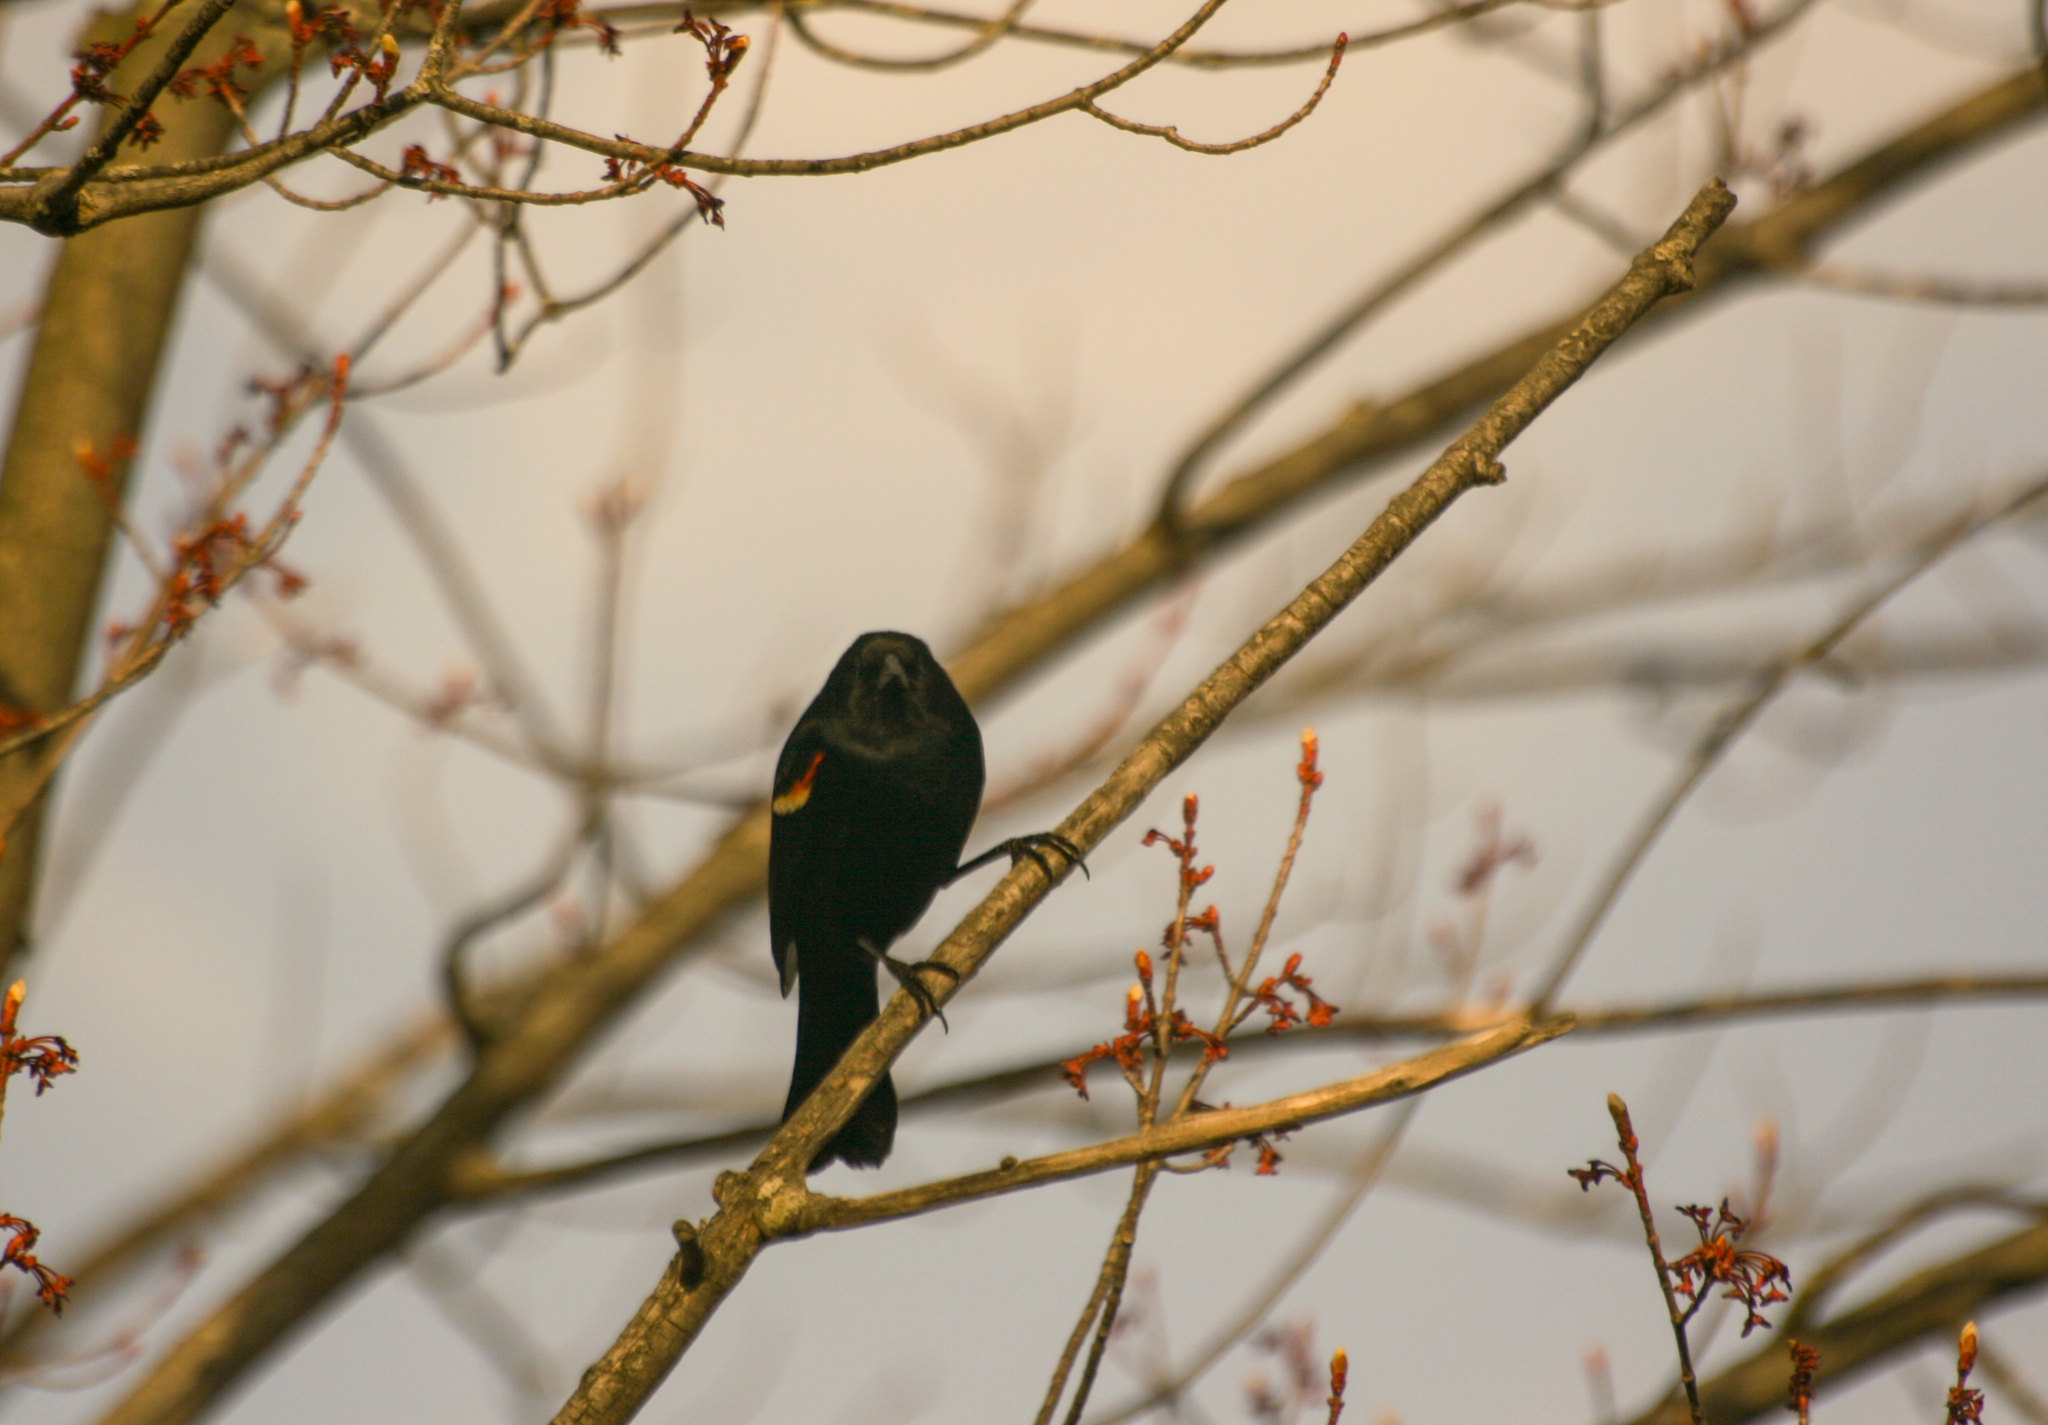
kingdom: Animalia
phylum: Chordata
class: Aves
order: Passeriformes
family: Icteridae
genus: Agelaius
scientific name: Agelaius phoeniceus
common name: Red-winged blackbird
